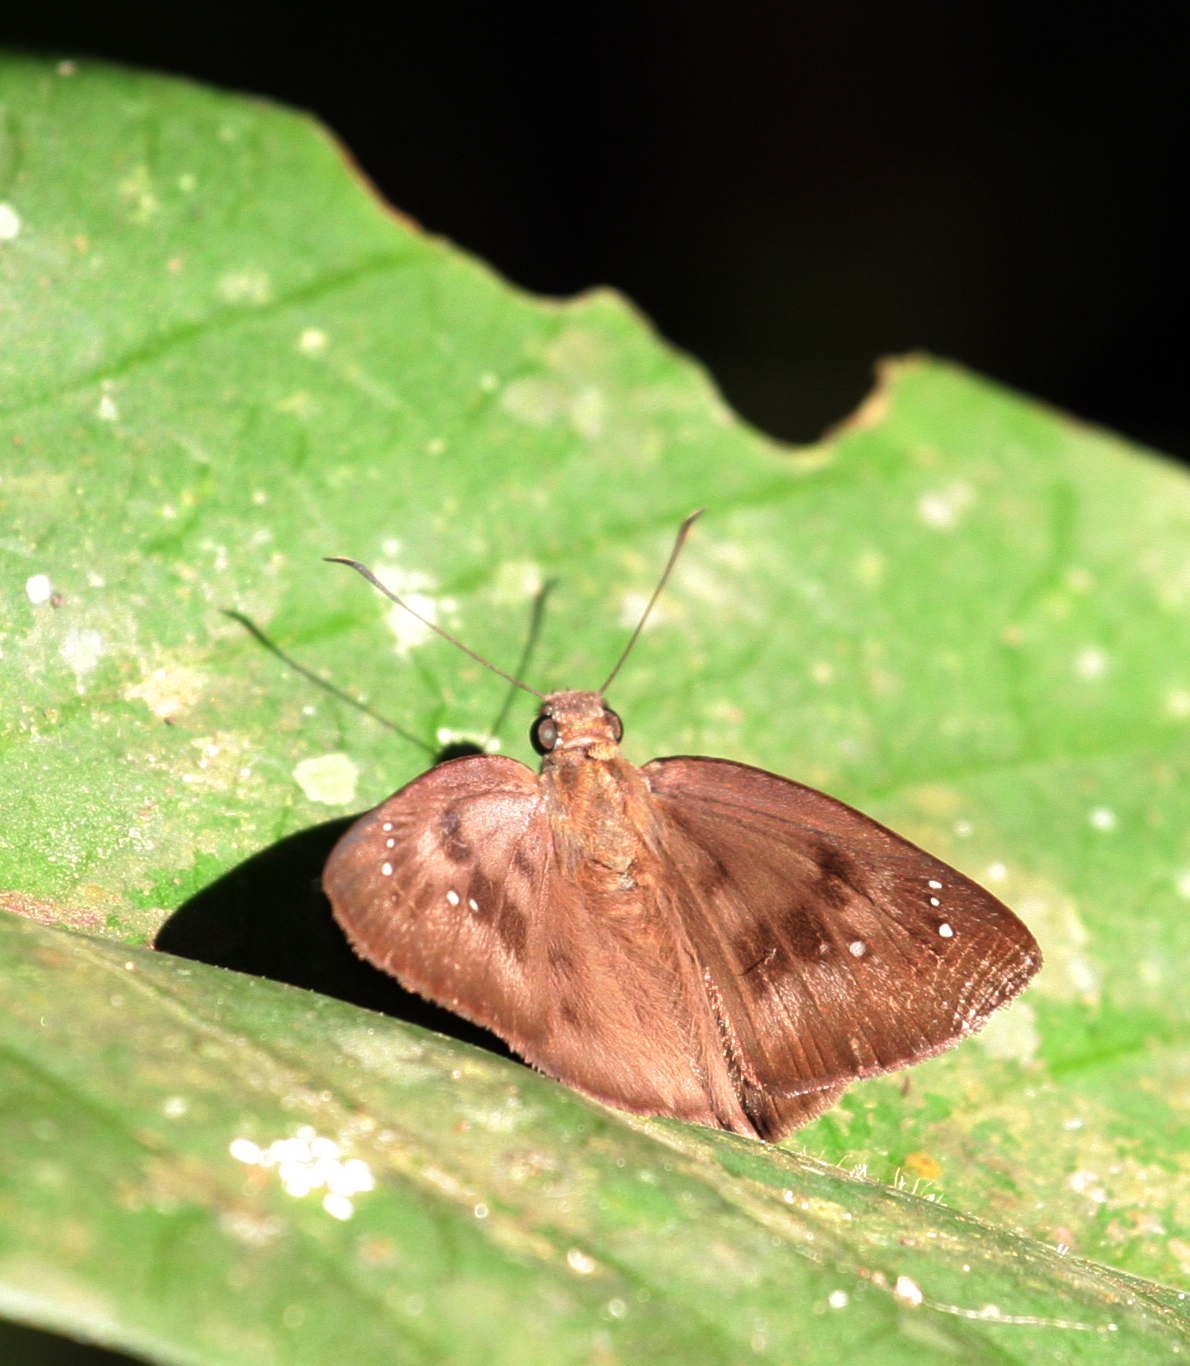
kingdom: Animalia
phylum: Arthropoda
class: Insecta
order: Lepidoptera
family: Hesperiidae
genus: Tagiades
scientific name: Tagiades japetus
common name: Pied flat
